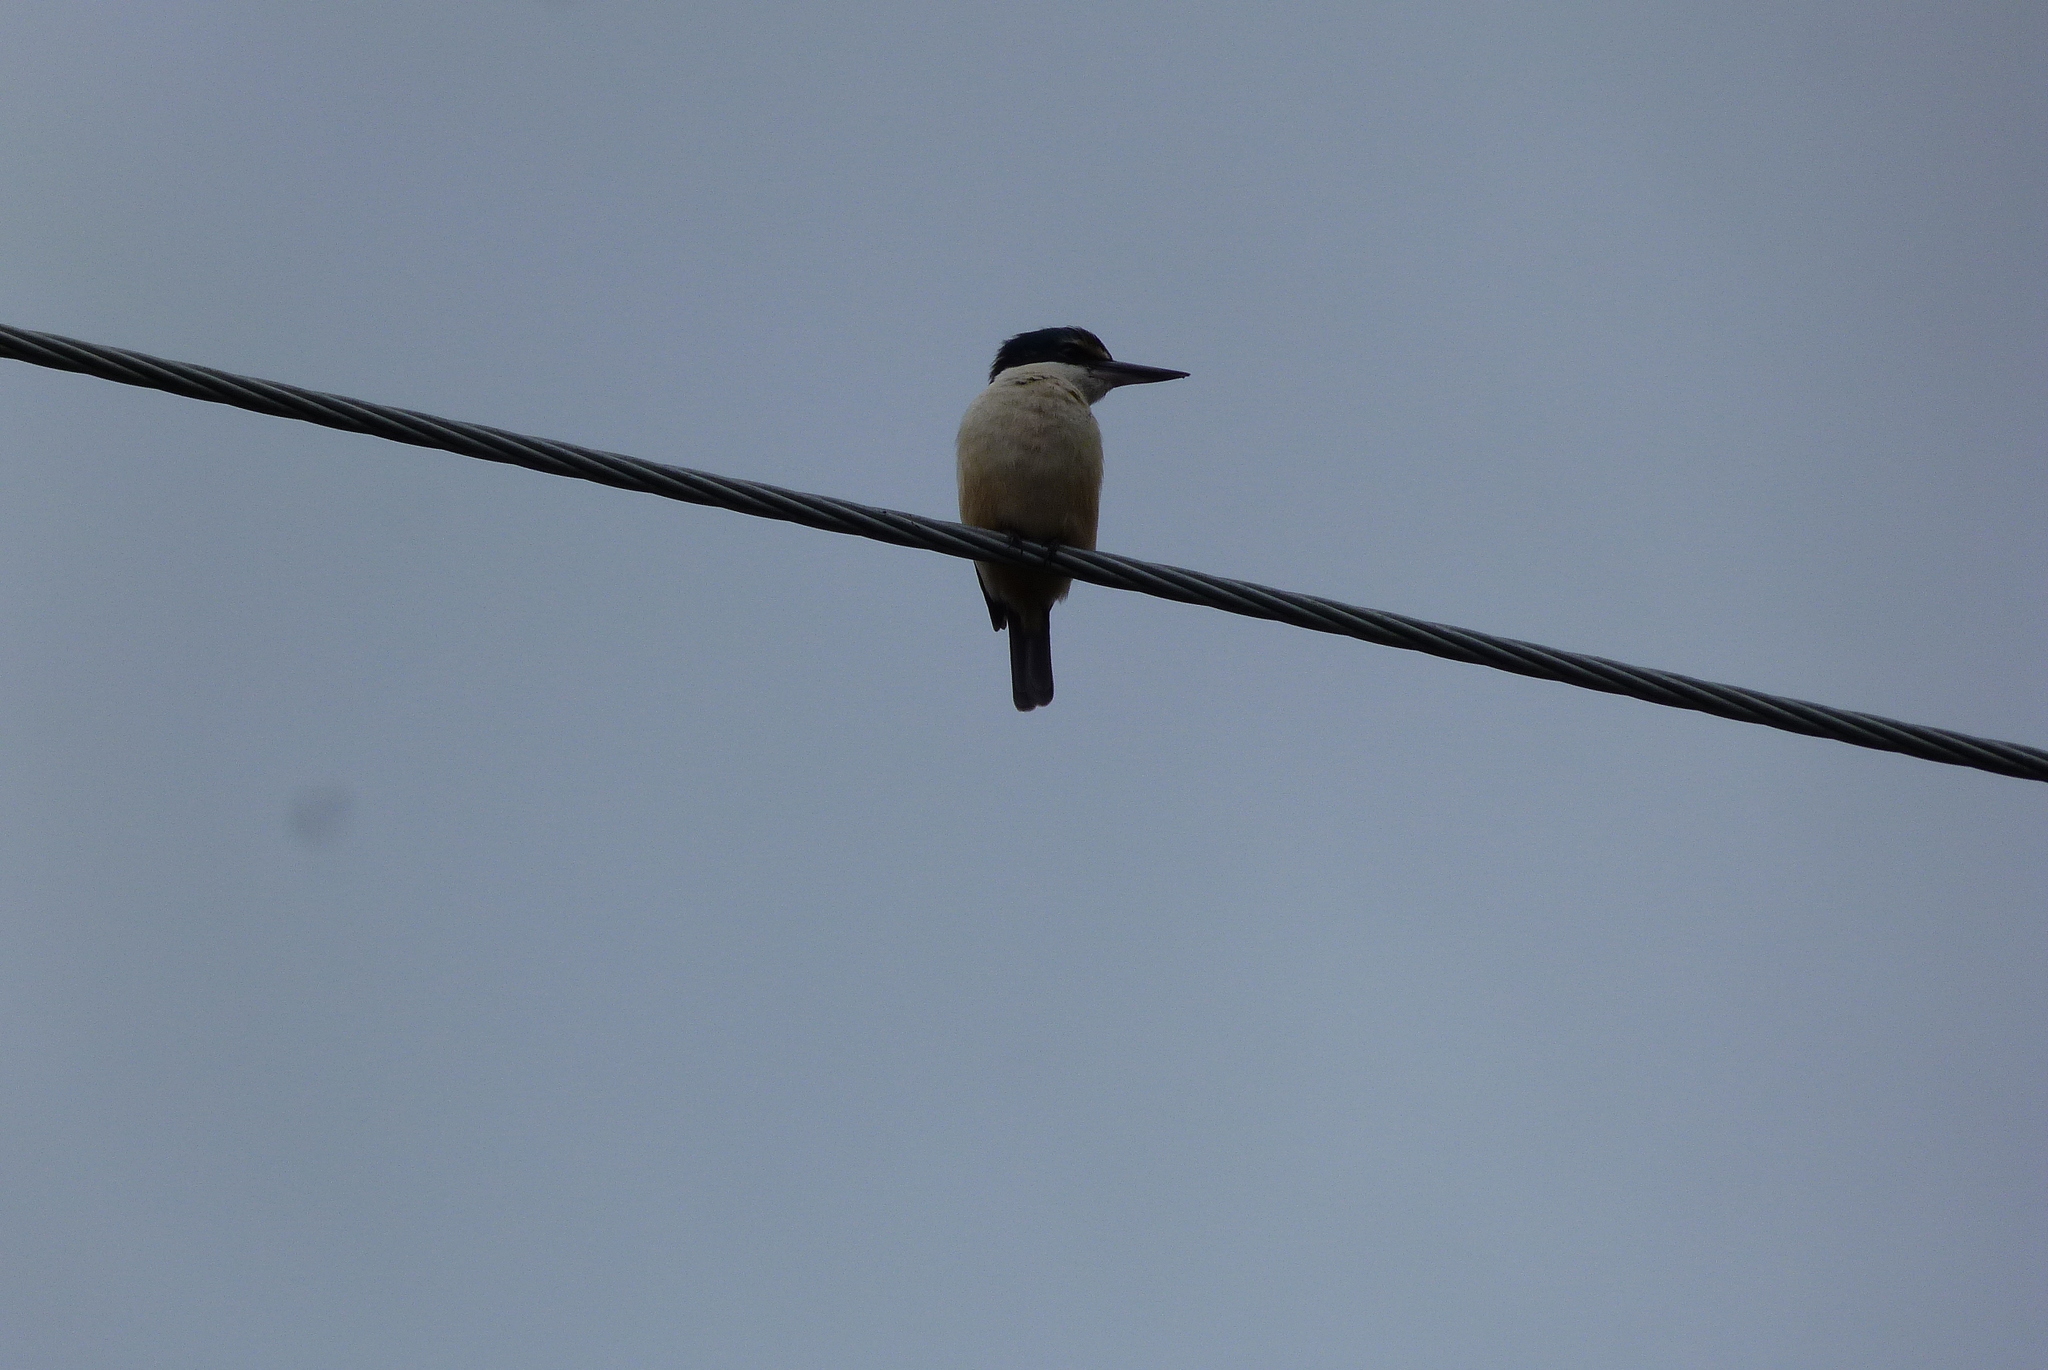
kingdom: Animalia
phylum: Chordata
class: Aves
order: Coraciiformes
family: Alcedinidae
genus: Todiramphus
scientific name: Todiramphus sanctus
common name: Sacred kingfisher
